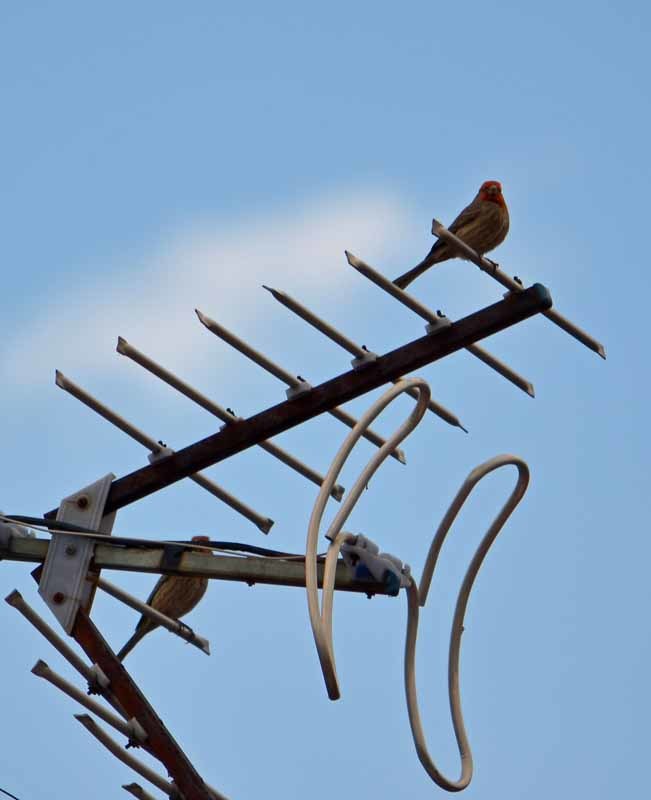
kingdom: Animalia
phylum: Chordata
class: Aves
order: Passeriformes
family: Fringillidae
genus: Haemorhous
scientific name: Haemorhous mexicanus
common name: House finch
